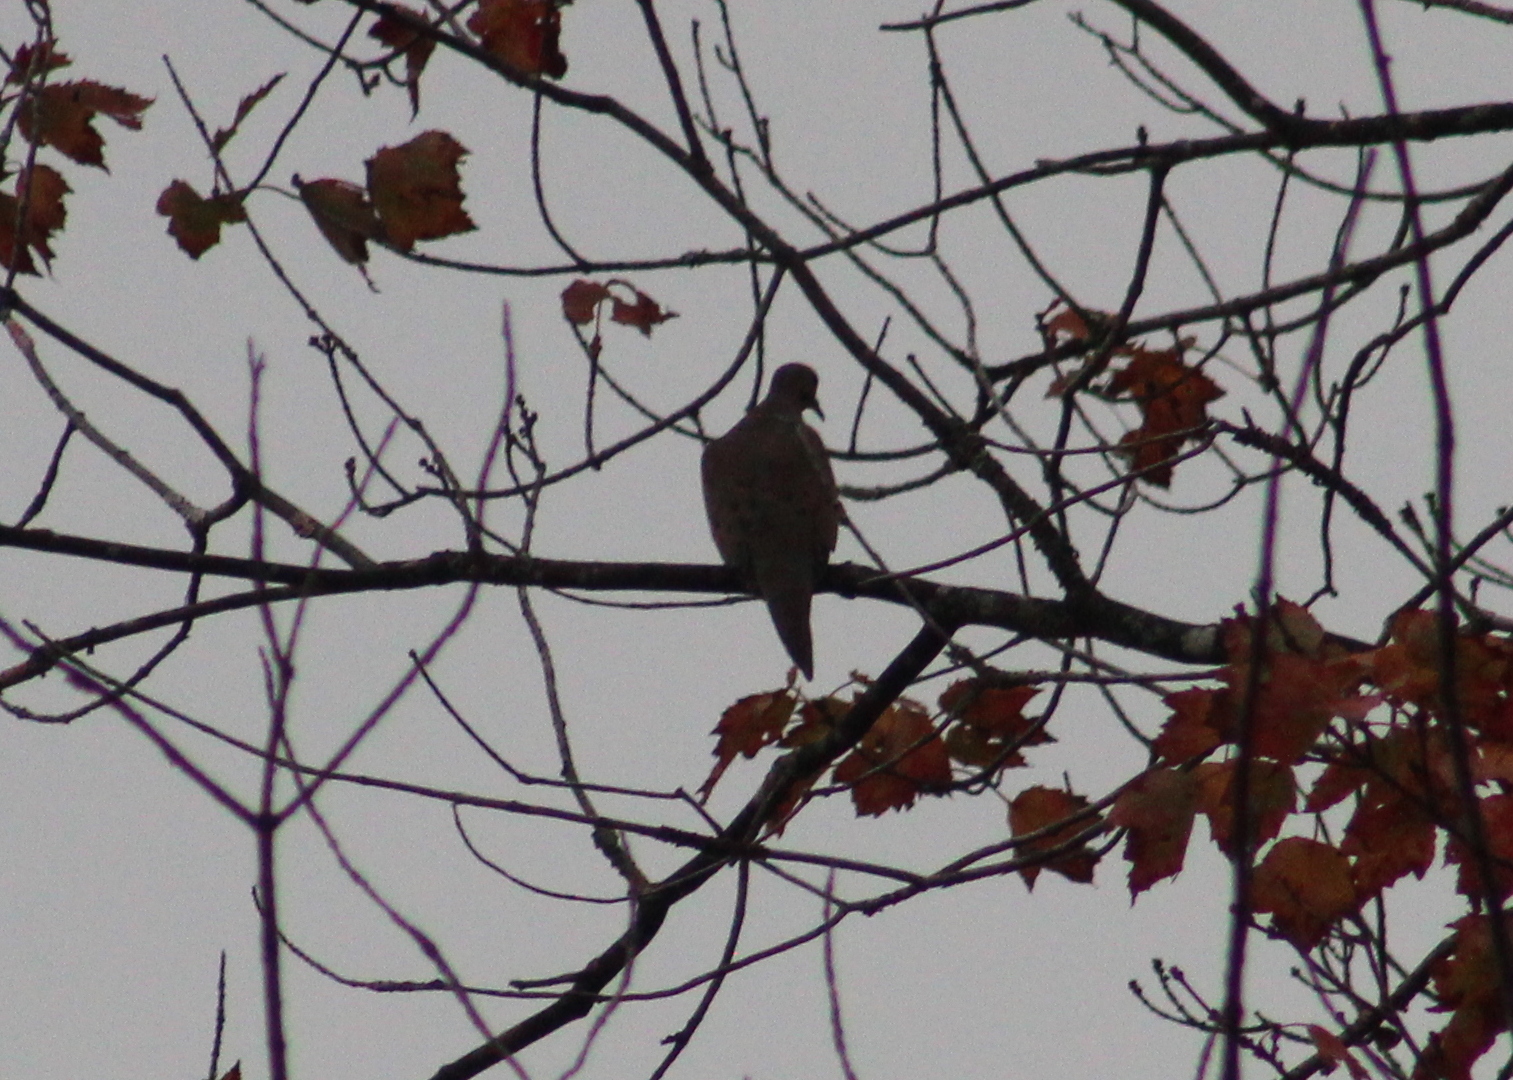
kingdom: Animalia
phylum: Chordata
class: Aves
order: Columbiformes
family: Columbidae
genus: Zenaida
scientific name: Zenaida macroura
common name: Mourning dove
